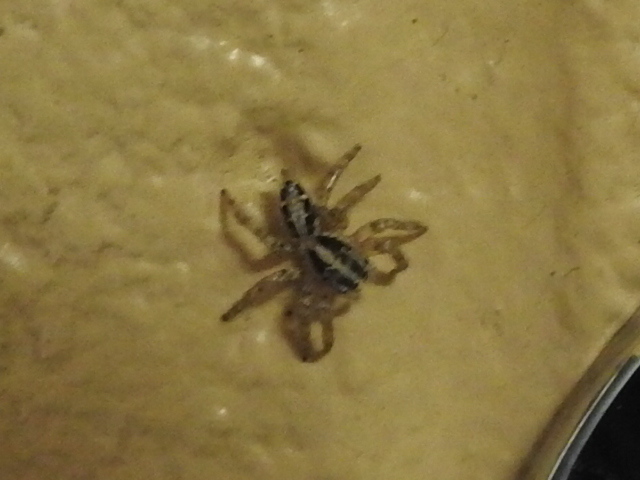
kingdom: Animalia
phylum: Arthropoda
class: Arachnida
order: Araneae
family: Salticidae
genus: Menemerus
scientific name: Menemerus bivittatus
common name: Gray wall jumper
